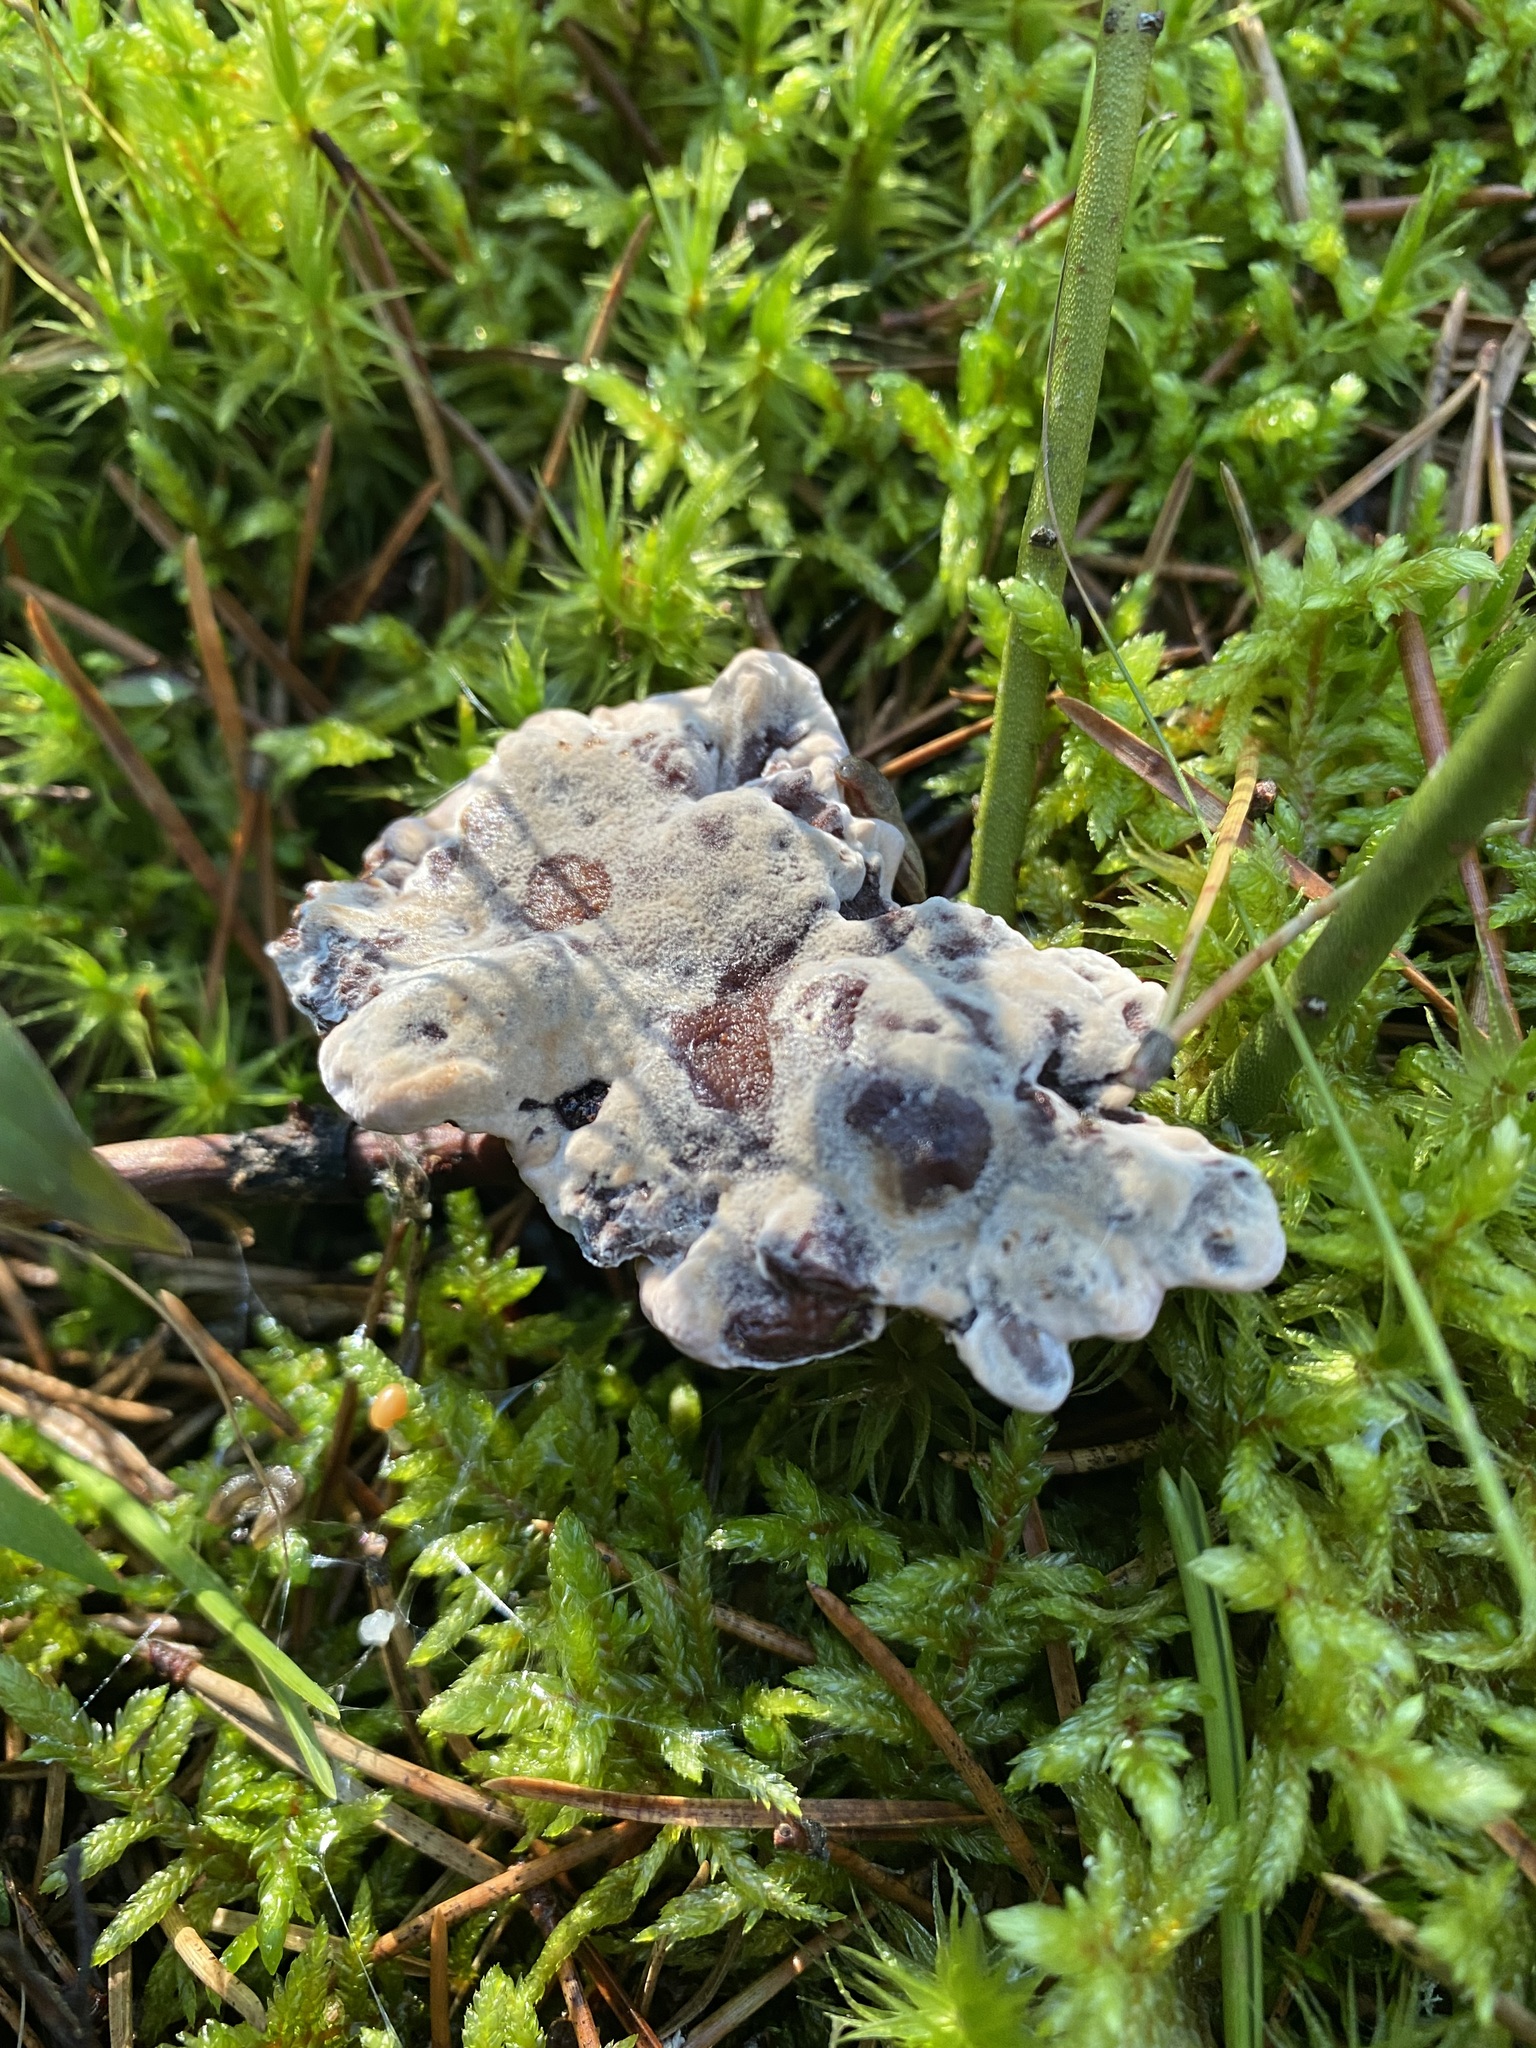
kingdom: Fungi
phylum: Basidiomycota
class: Agaricomycetes
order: Thelephorales
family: Bankeraceae
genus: Hydnellum
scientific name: Hydnellum spongiosipes
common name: Velvet tooth
